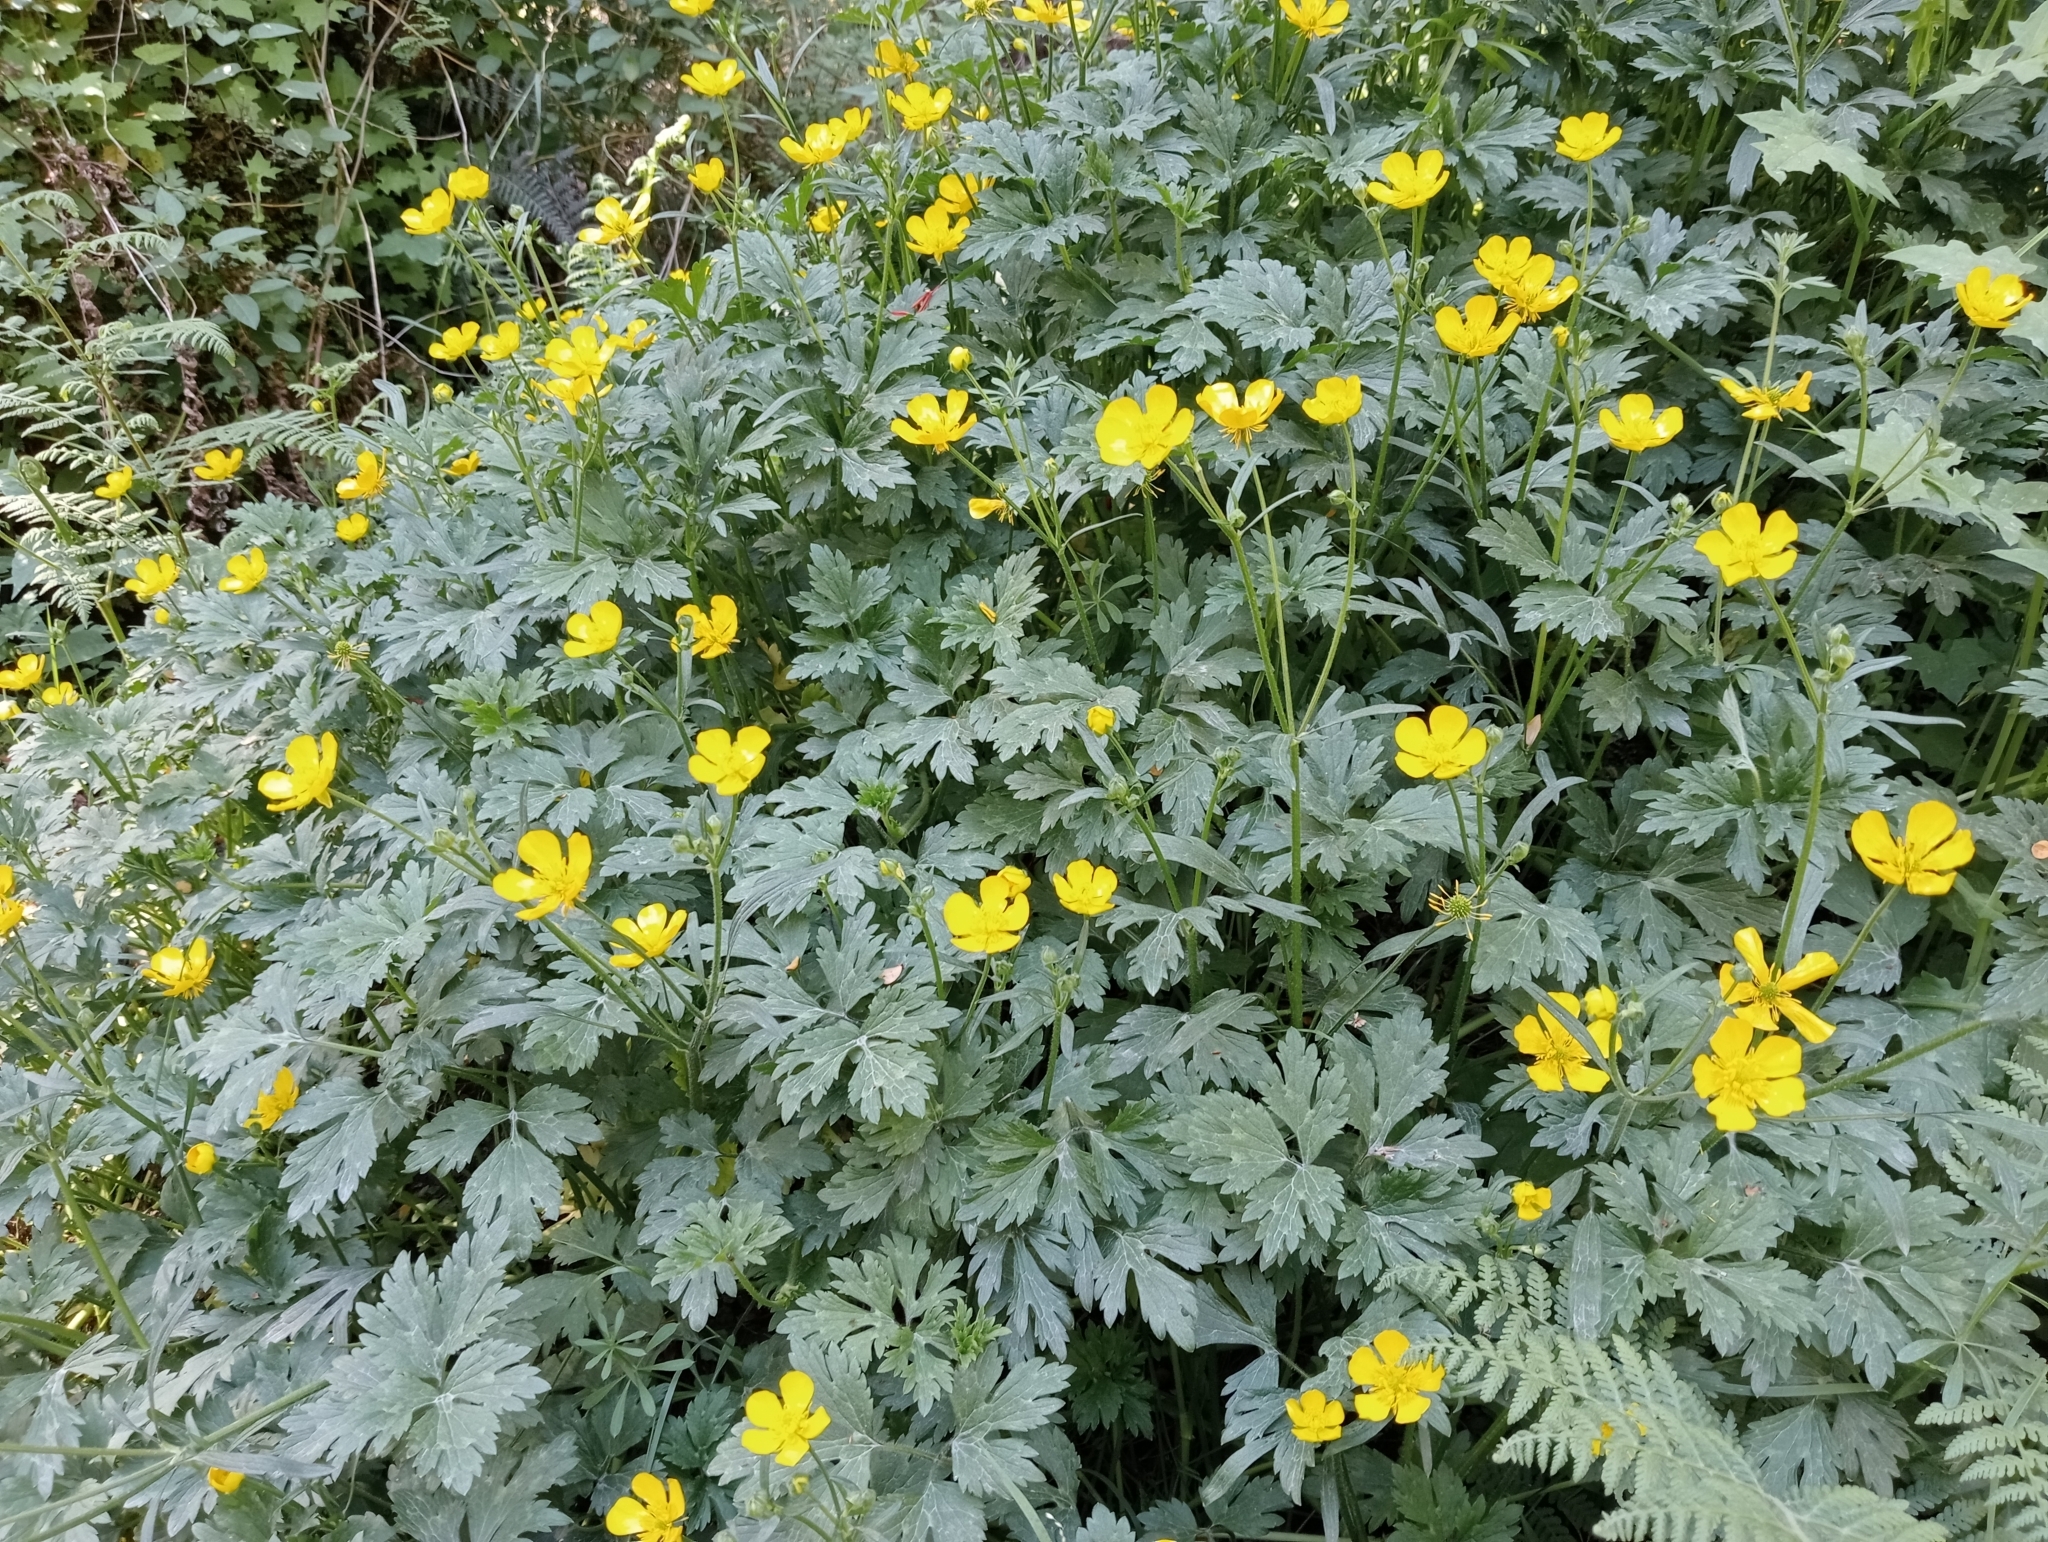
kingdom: Plantae
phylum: Tracheophyta
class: Magnoliopsida
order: Ranunculales
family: Ranunculaceae
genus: Ranunculus
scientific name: Ranunculus repens
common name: Creeping buttercup
